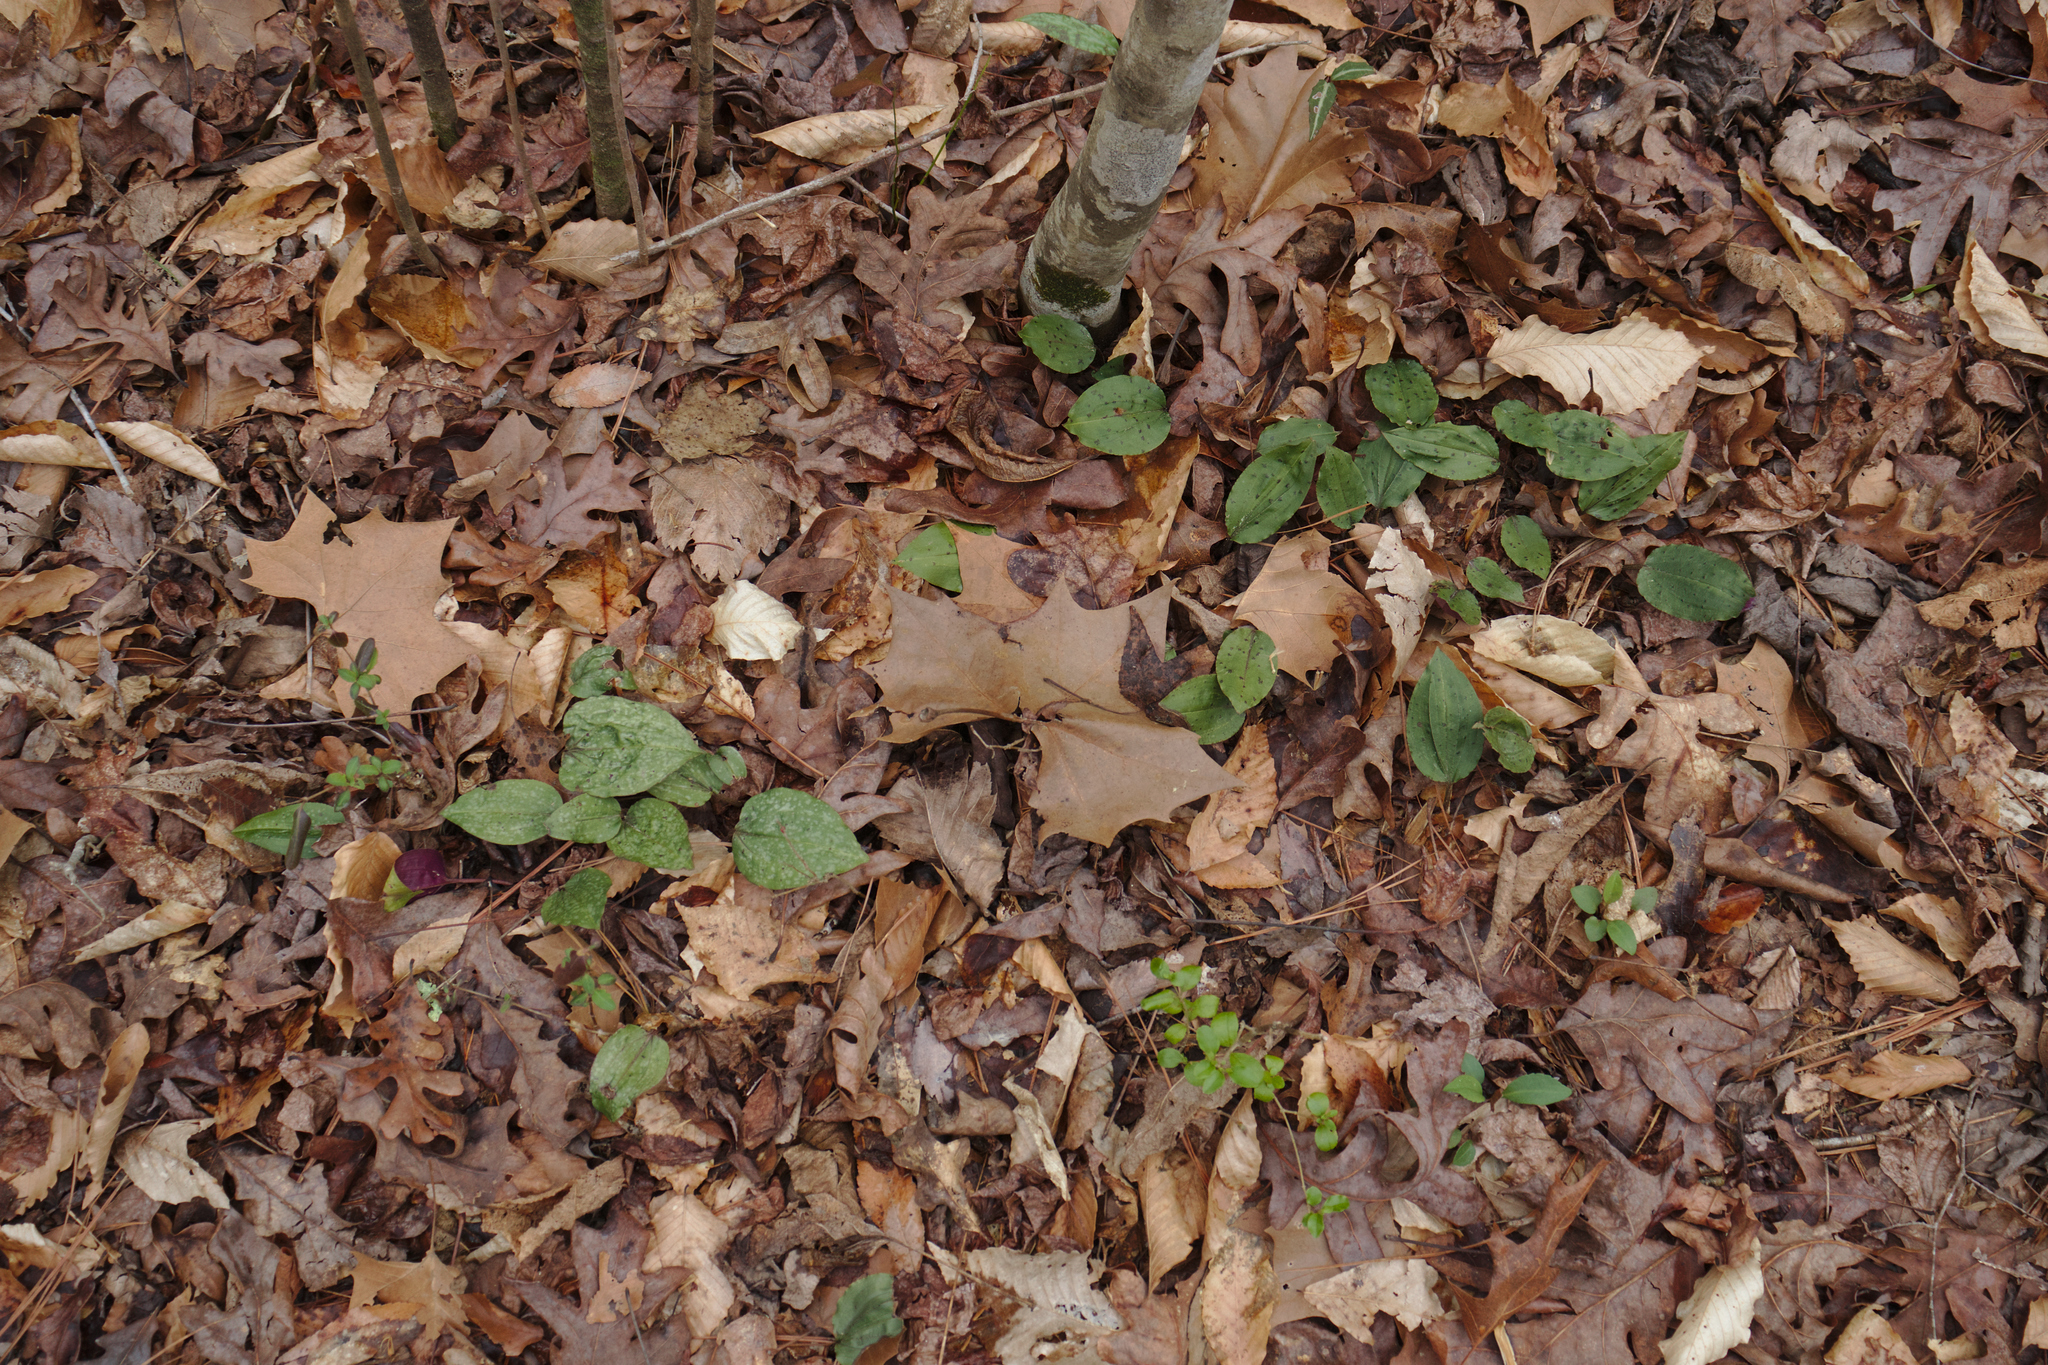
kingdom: Plantae
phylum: Tracheophyta
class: Liliopsida
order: Asparagales
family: Orchidaceae
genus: Tipularia
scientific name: Tipularia discolor
